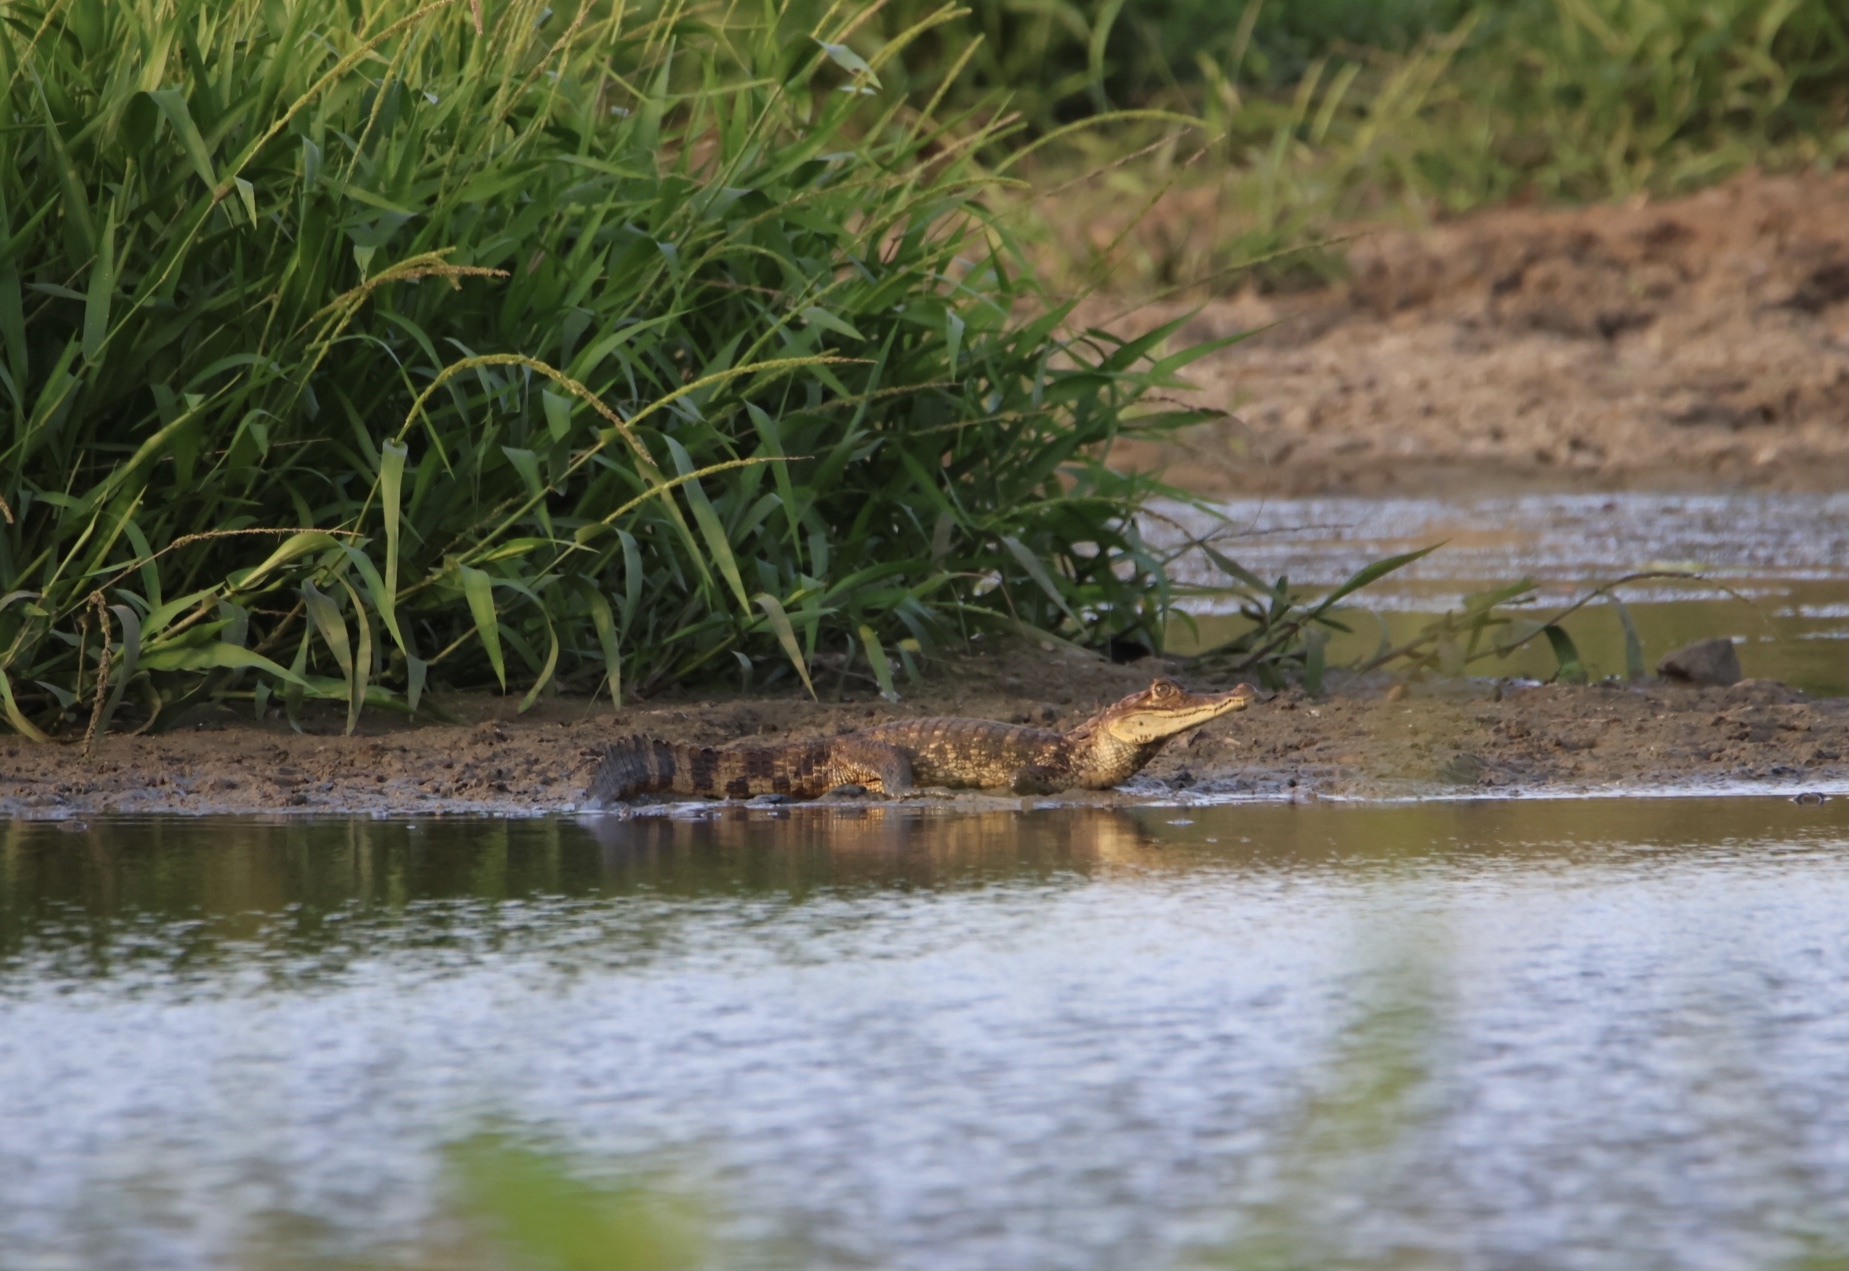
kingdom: Animalia
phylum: Chordata
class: Crocodylia
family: Alligatoridae
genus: Caiman
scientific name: Caiman crocodilus
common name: Common caiman
